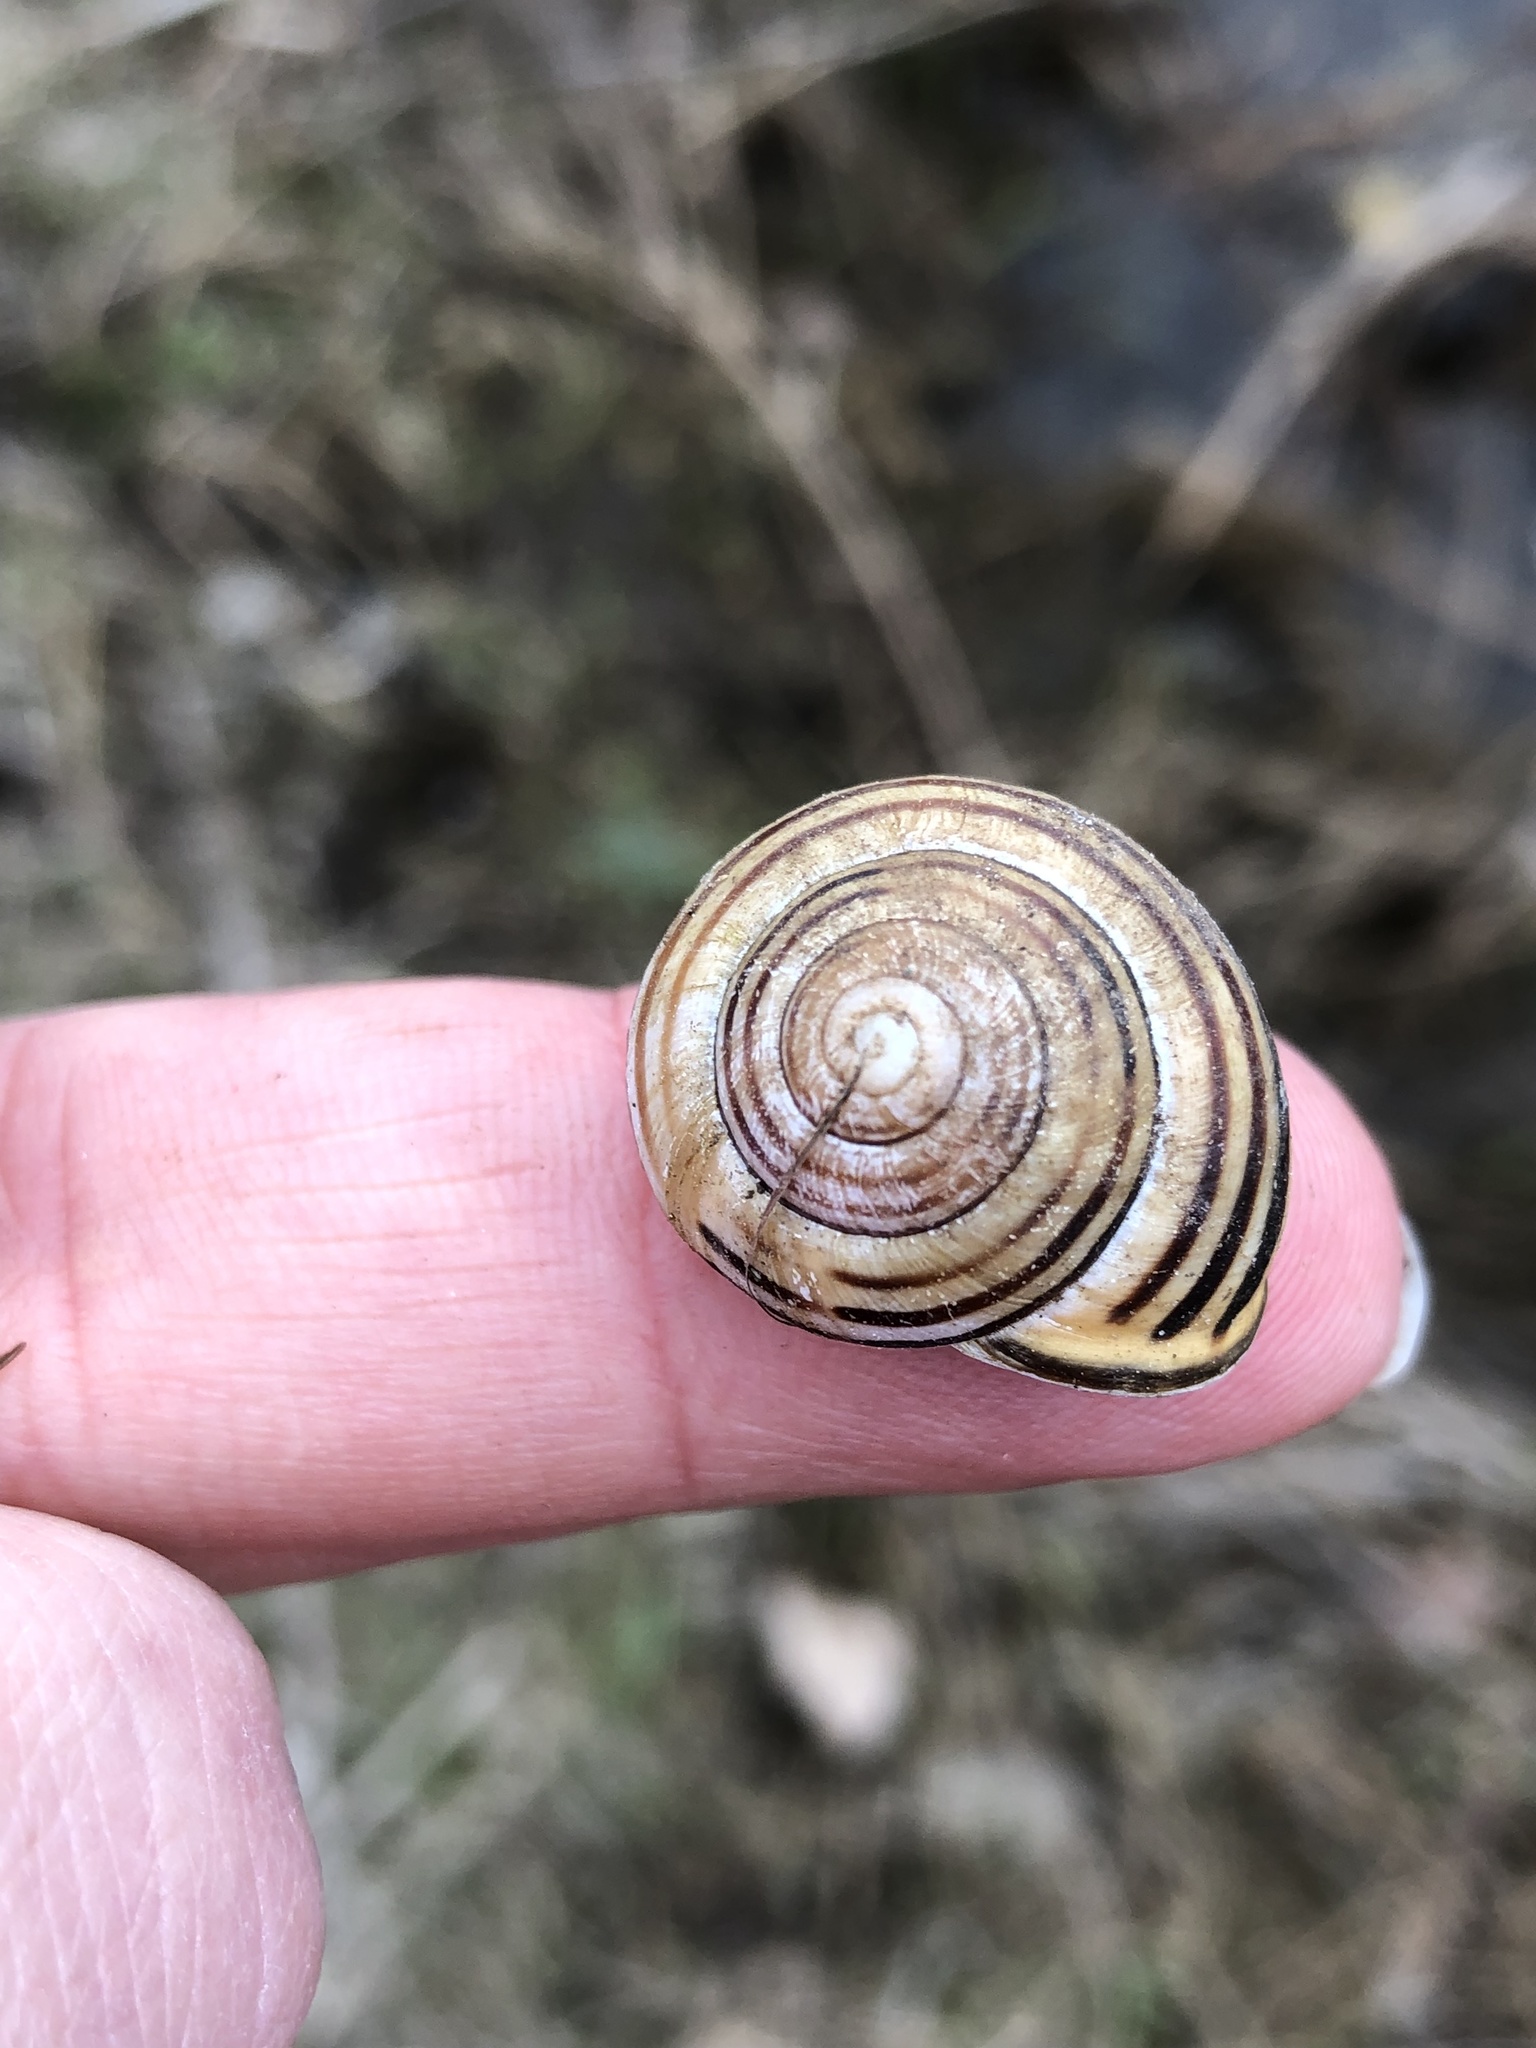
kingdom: Animalia
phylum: Mollusca
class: Gastropoda
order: Stylommatophora
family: Helicidae
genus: Cepaea
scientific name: Cepaea nemoralis
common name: Grovesnail
